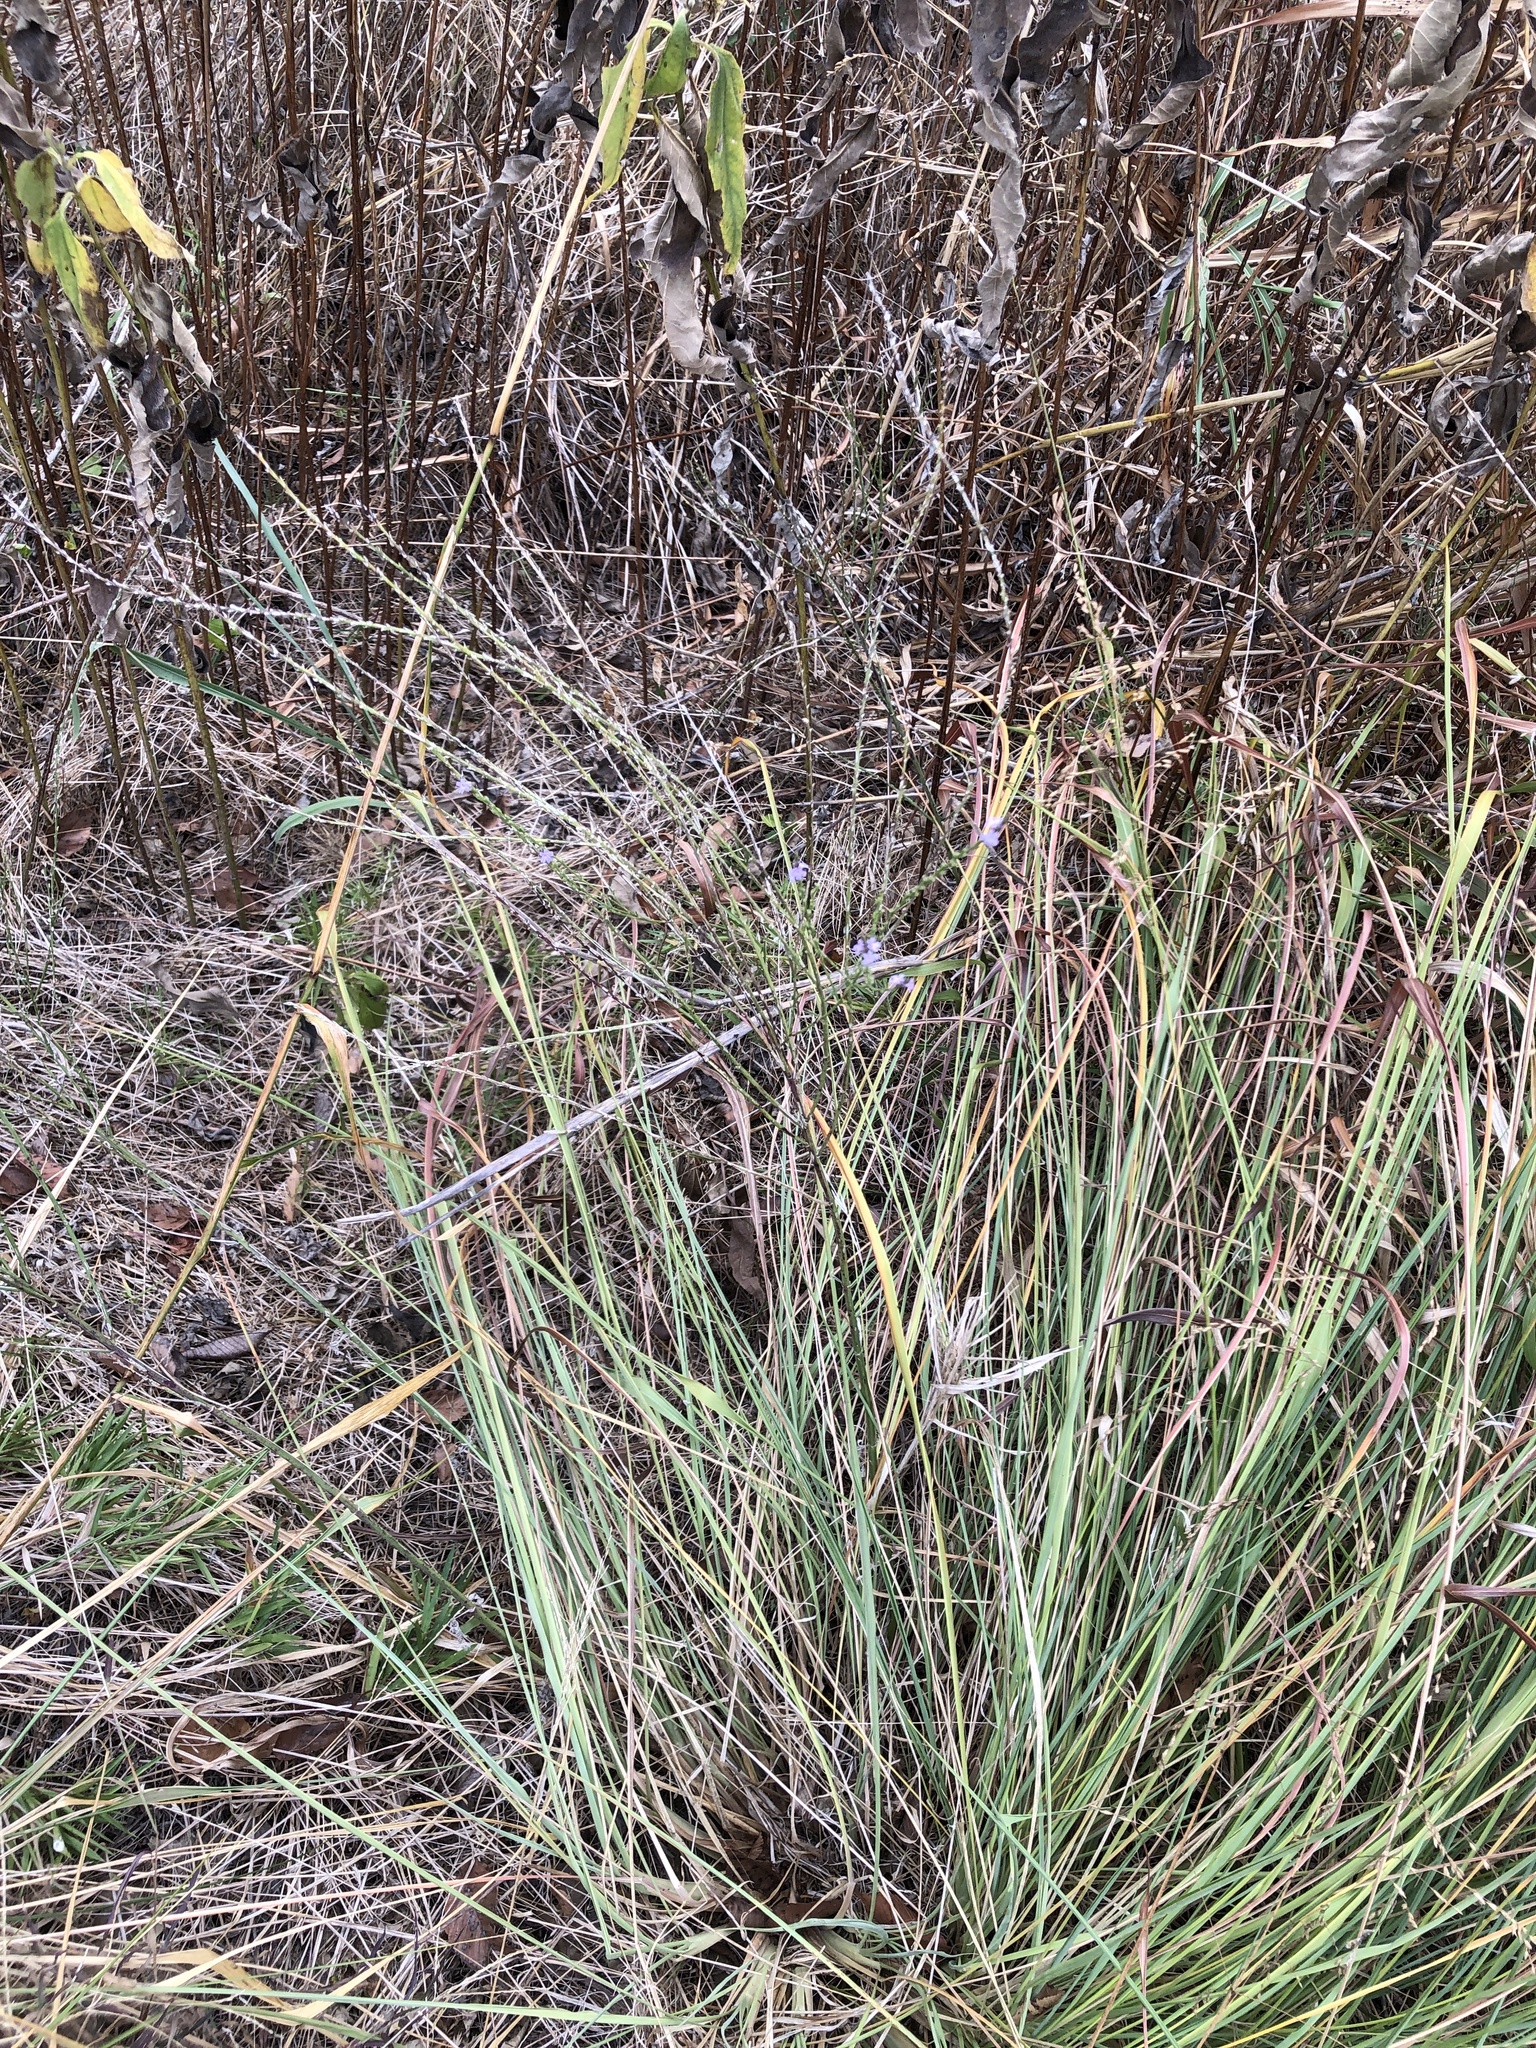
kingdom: Plantae
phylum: Tracheophyta
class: Magnoliopsida
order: Lamiales
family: Verbenaceae
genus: Verbena
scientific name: Verbena halei
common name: Texas vervain
